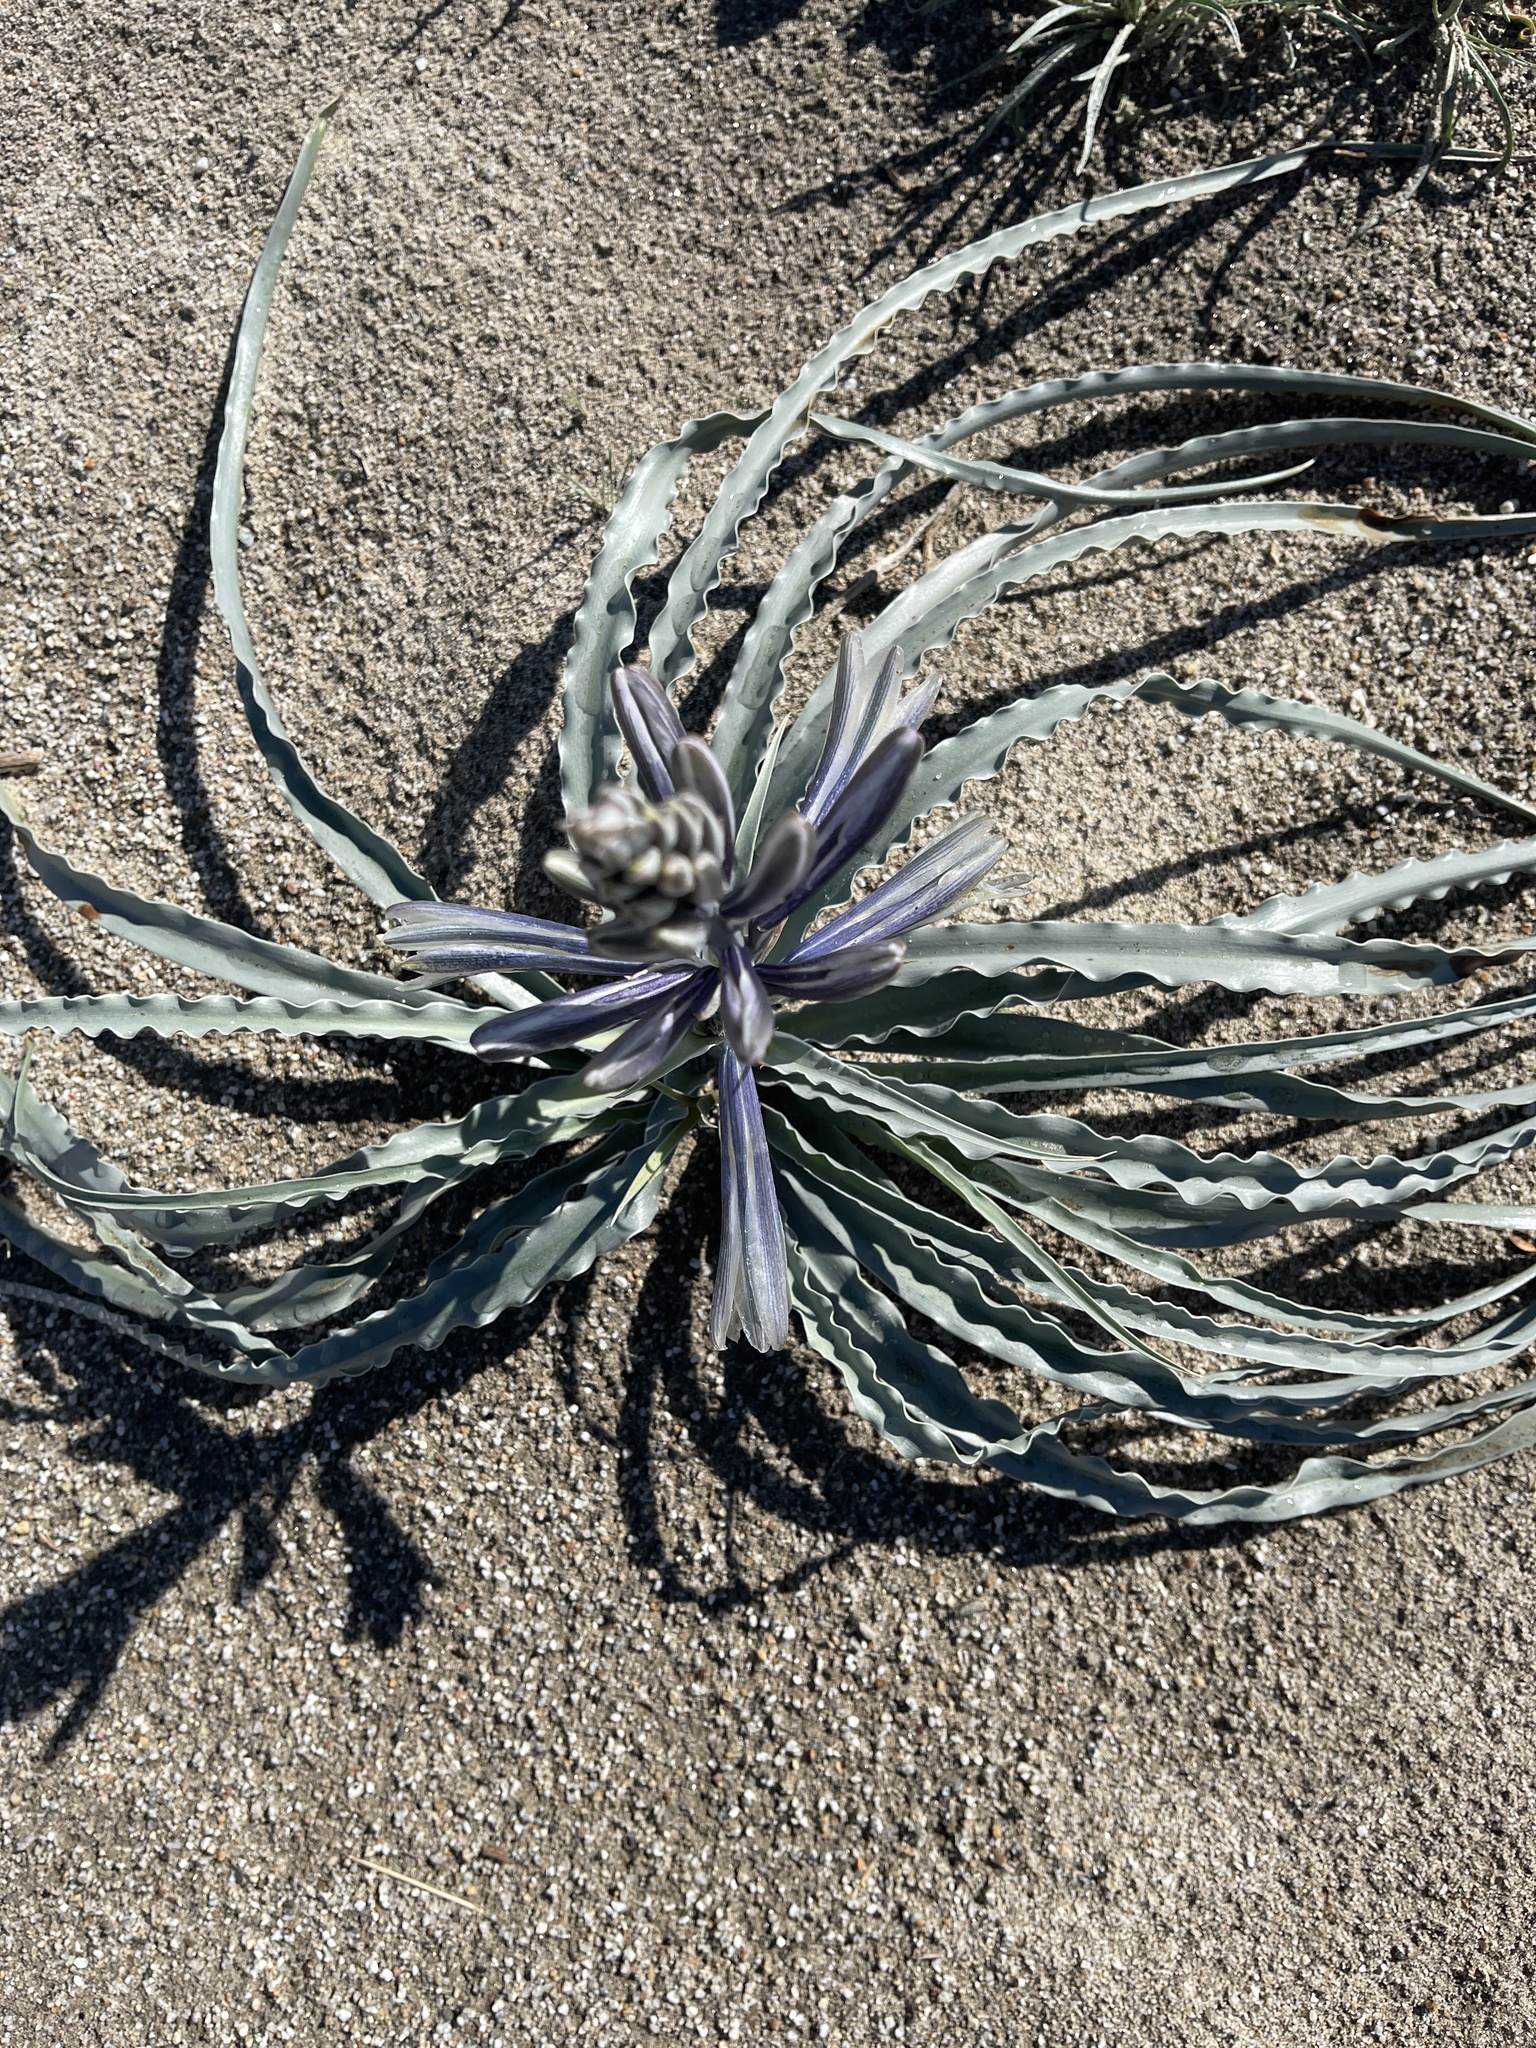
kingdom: Plantae
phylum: Tracheophyta
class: Liliopsida
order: Asparagales
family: Asparagaceae
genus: Hesperocallis
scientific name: Hesperocallis undulata
